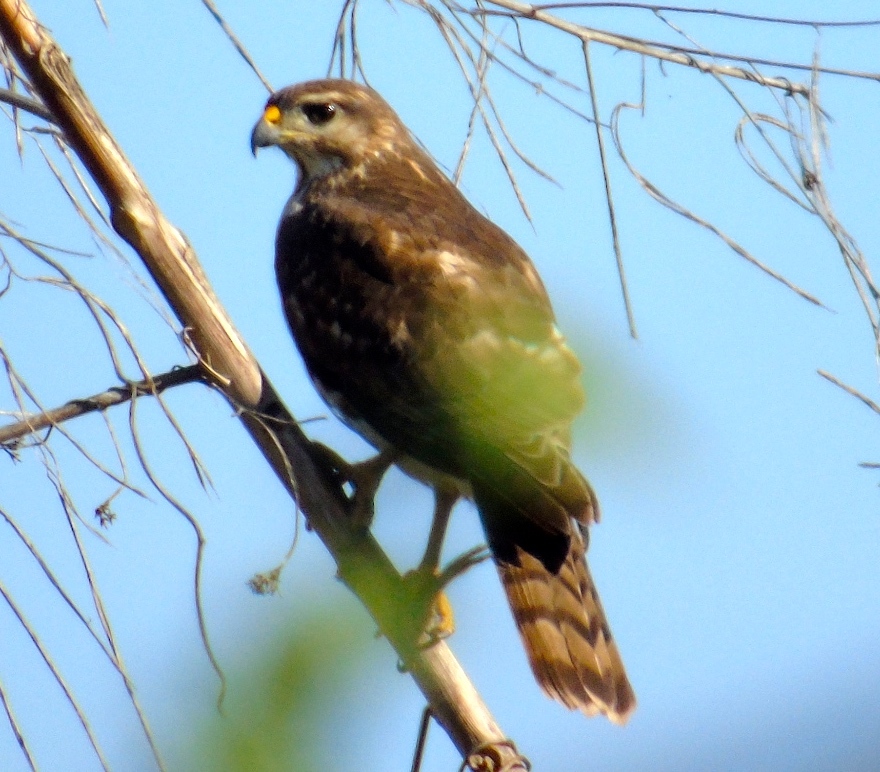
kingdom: Animalia
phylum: Chordata
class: Aves
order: Accipitriformes
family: Accipitridae
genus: Buteo
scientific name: Buteo nitidus
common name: Grey-lined hawk
